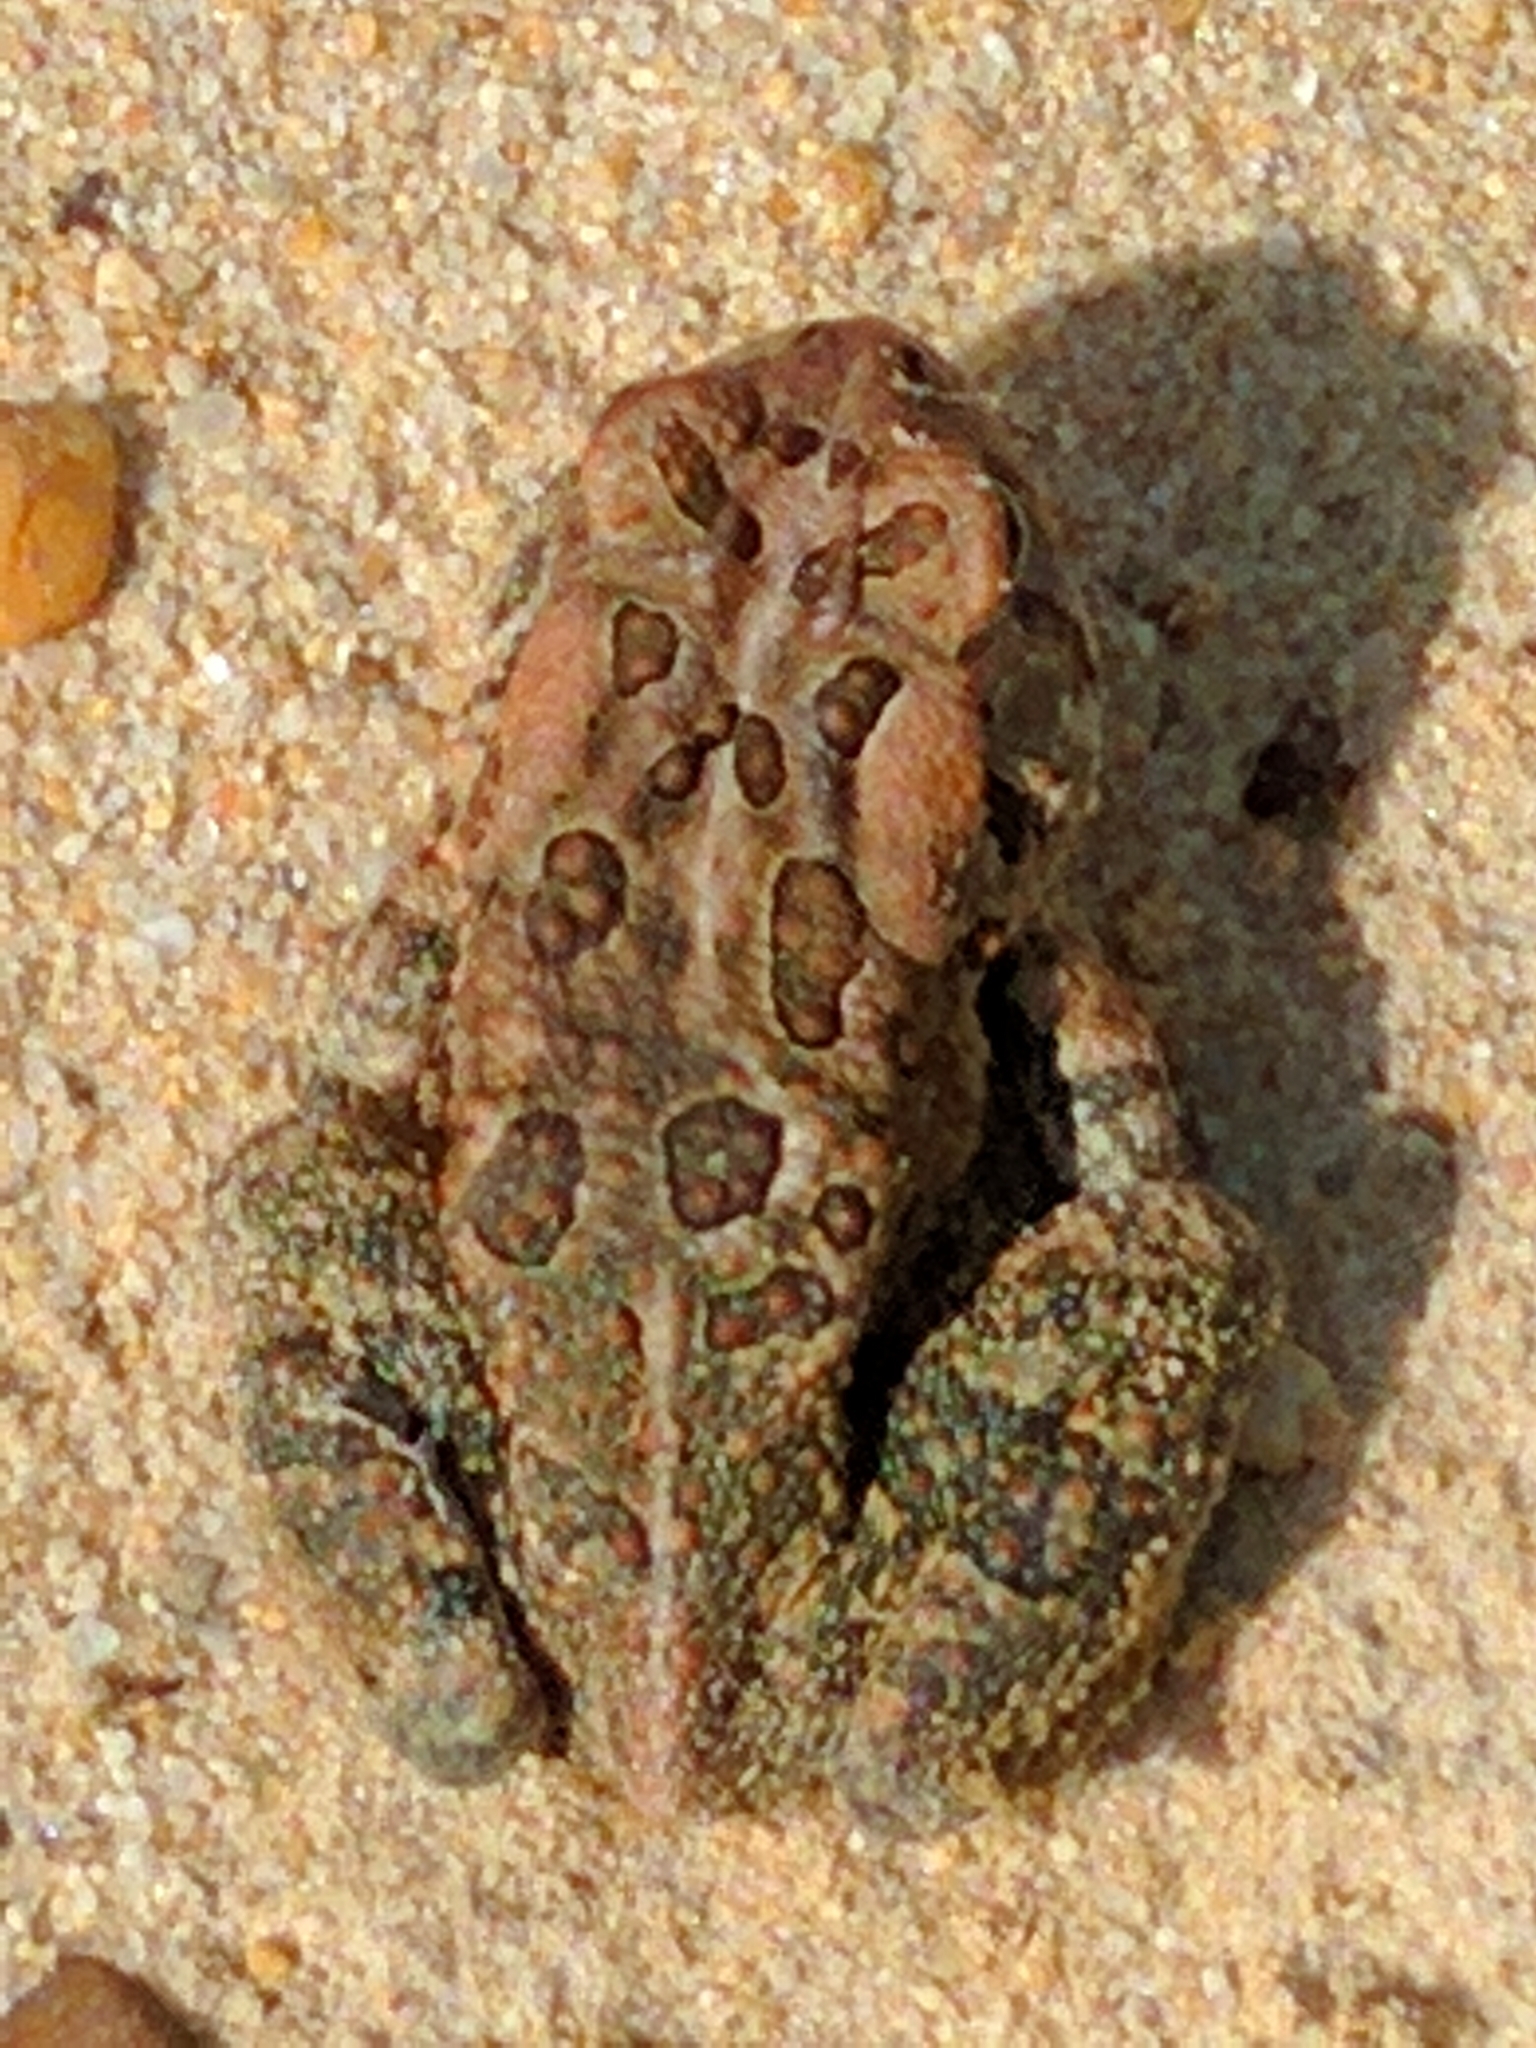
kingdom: Animalia
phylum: Chordata
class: Amphibia
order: Anura
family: Bufonidae
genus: Anaxyrus
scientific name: Anaxyrus fowleri
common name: Fowler's toad
